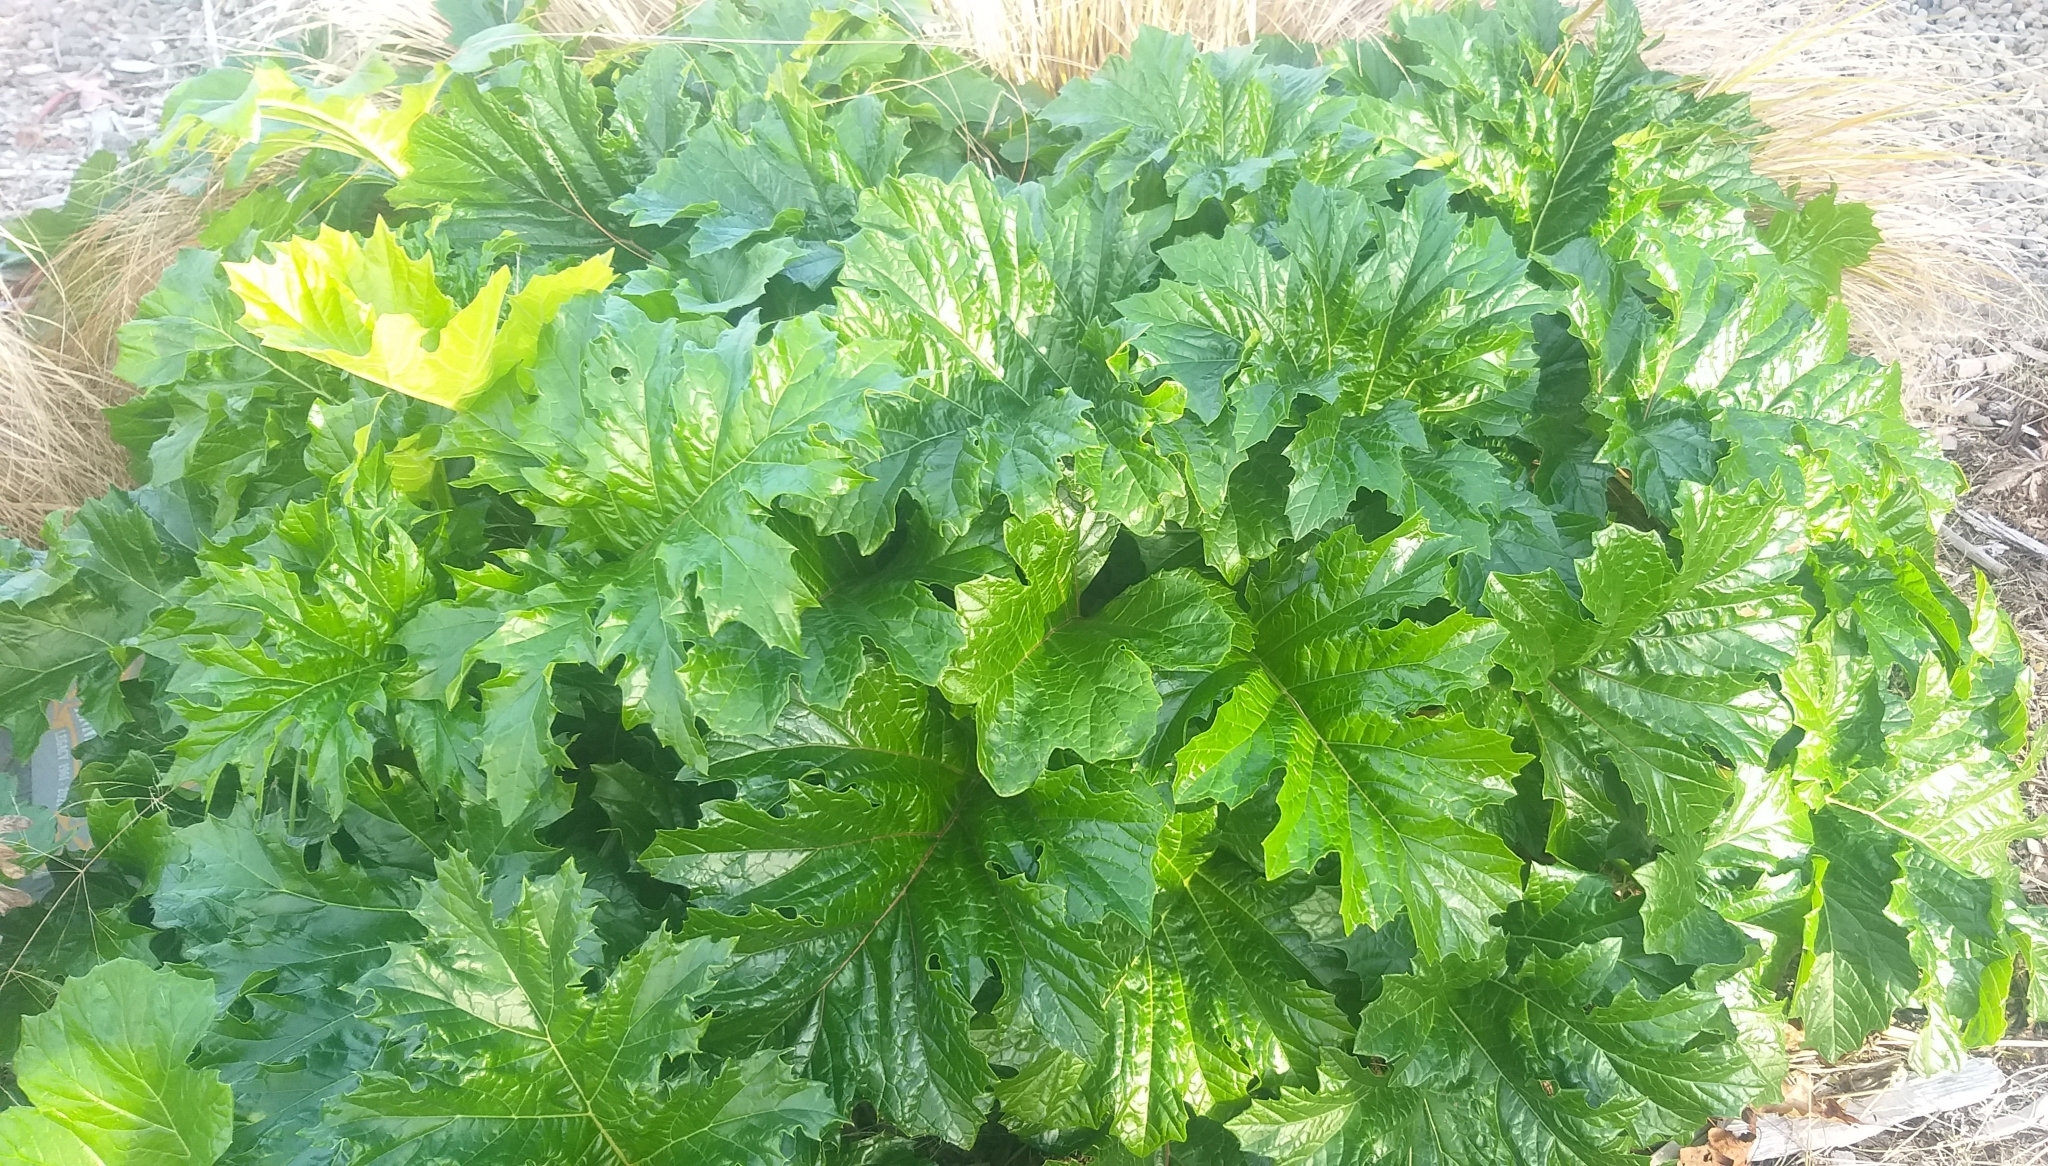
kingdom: Plantae
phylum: Tracheophyta
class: Magnoliopsida
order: Lamiales
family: Acanthaceae
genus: Acanthus
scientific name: Acanthus mollis
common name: Bear's-breech
